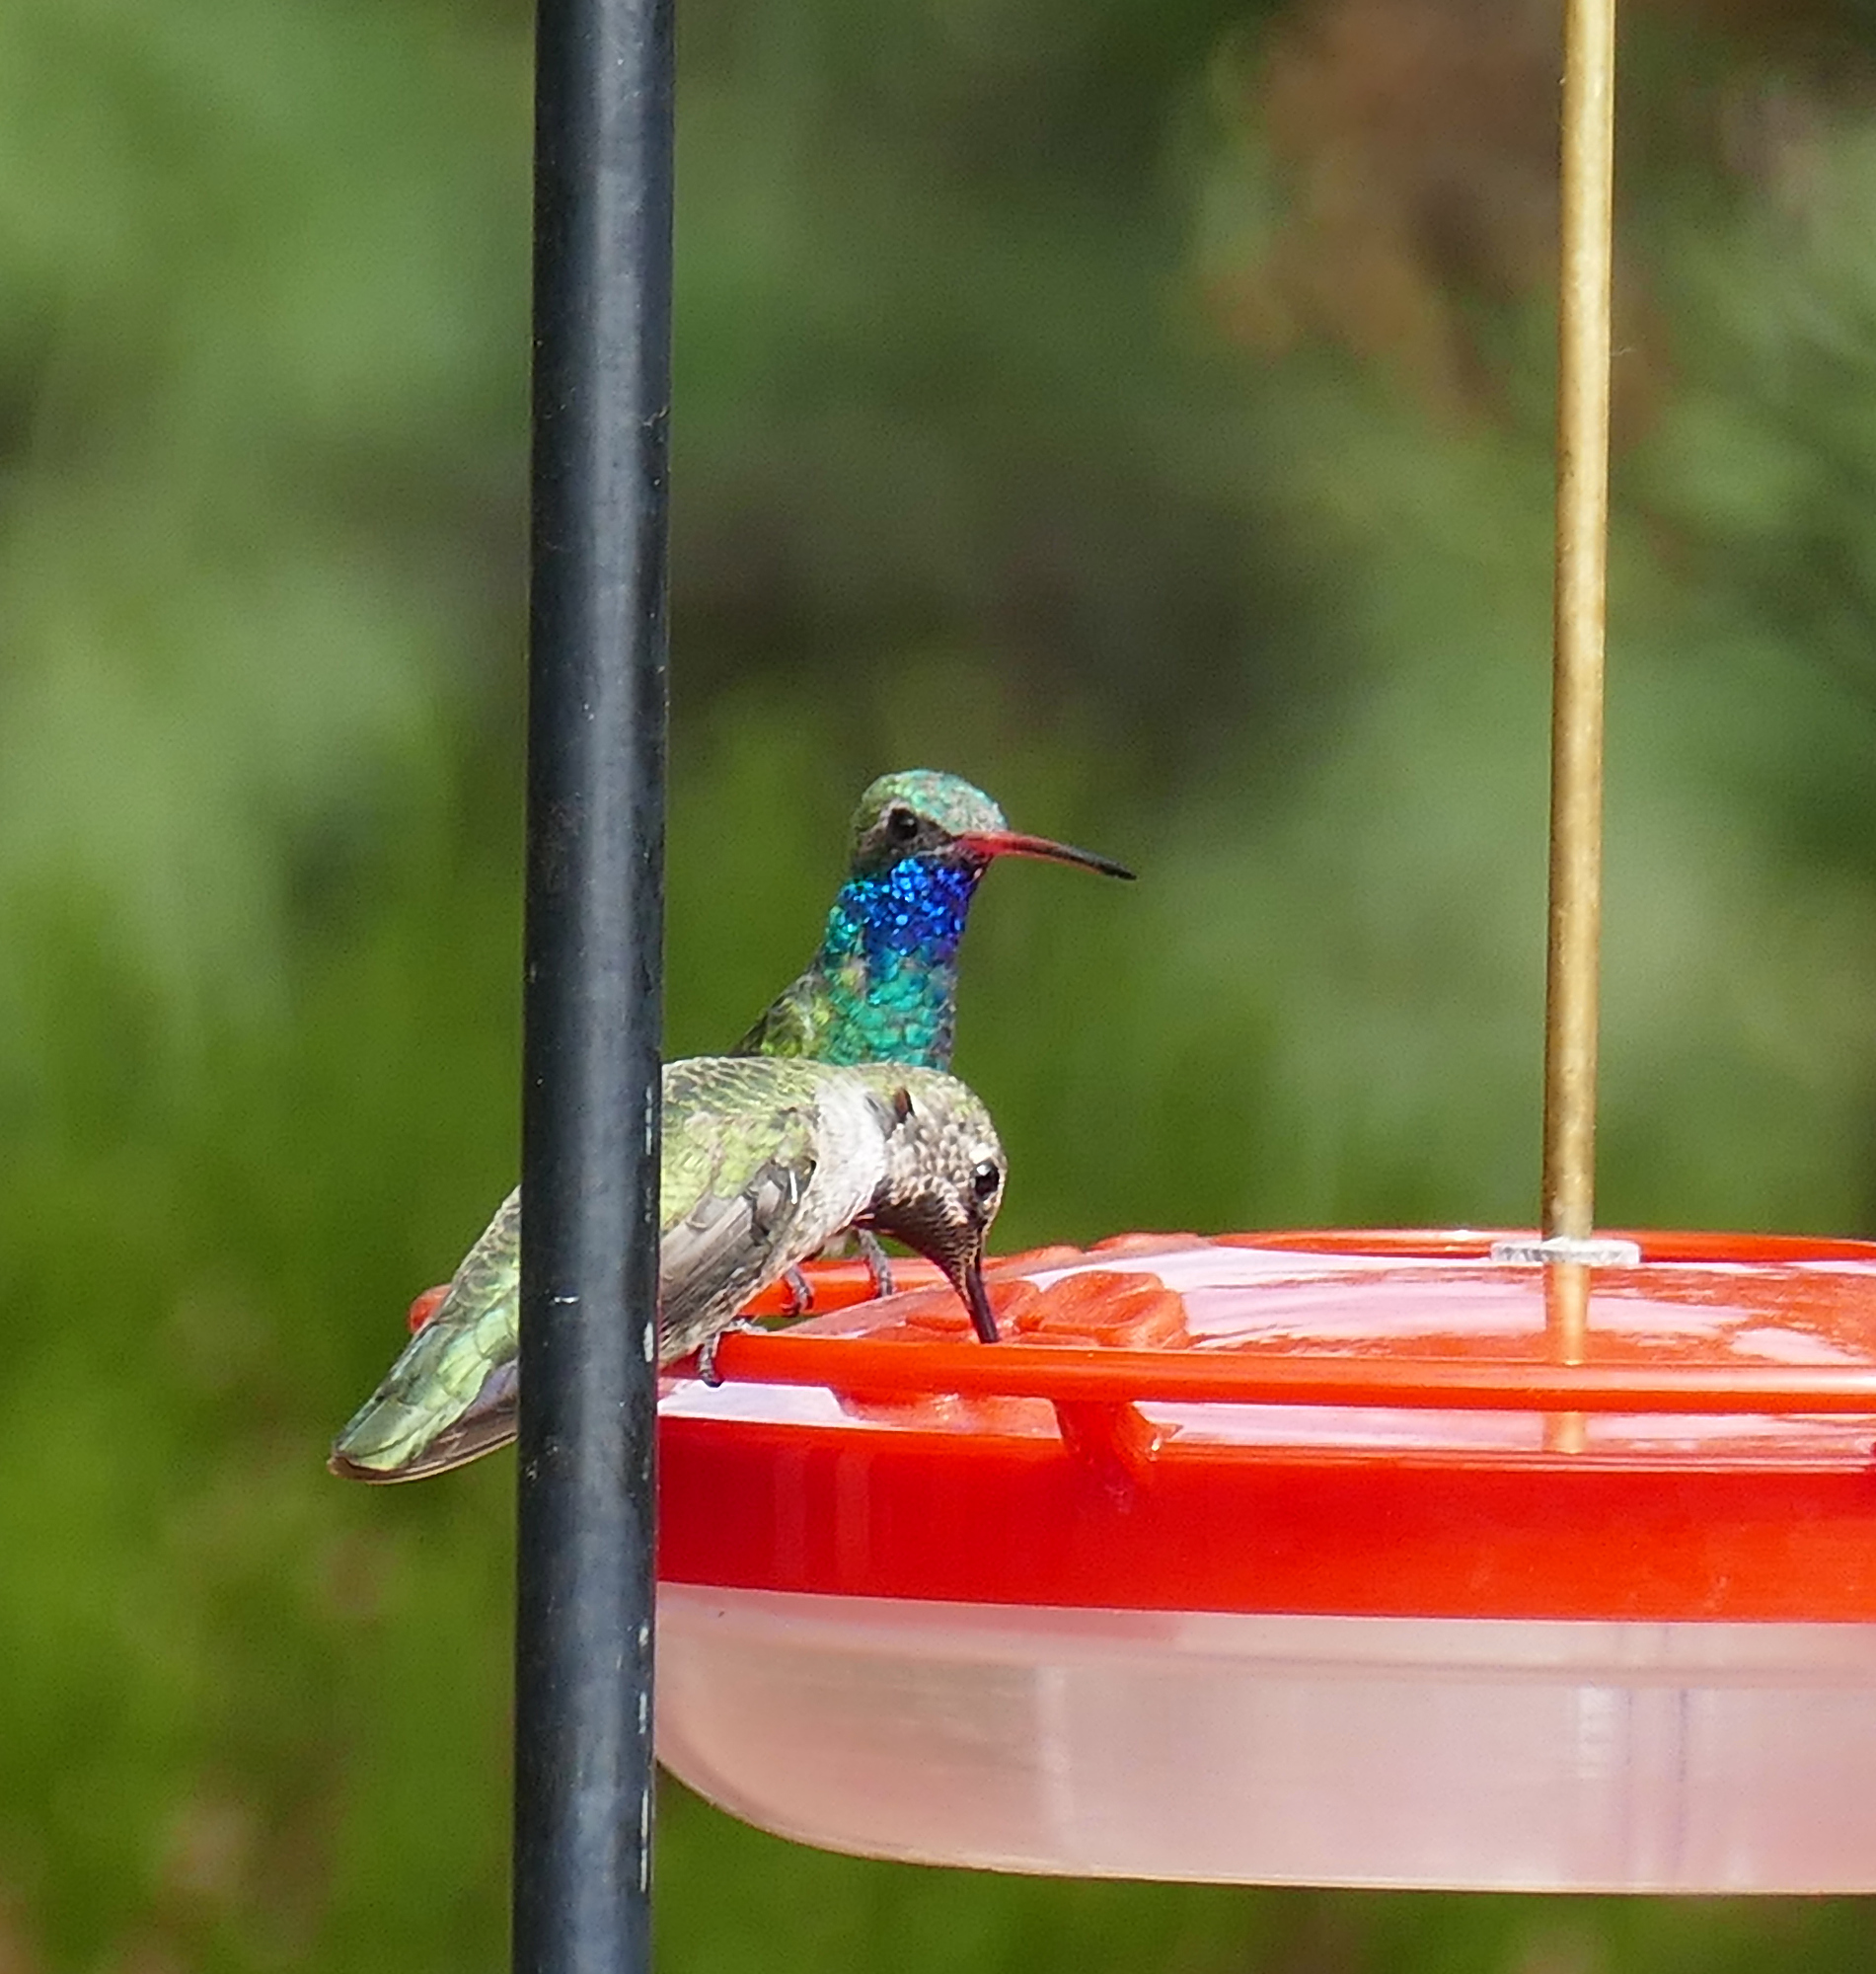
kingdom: Animalia
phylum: Chordata
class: Aves
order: Apodiformes
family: Trochilidae
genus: Cynanthus
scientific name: Cynanthus latirostris
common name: Broad-billed hummingbird
